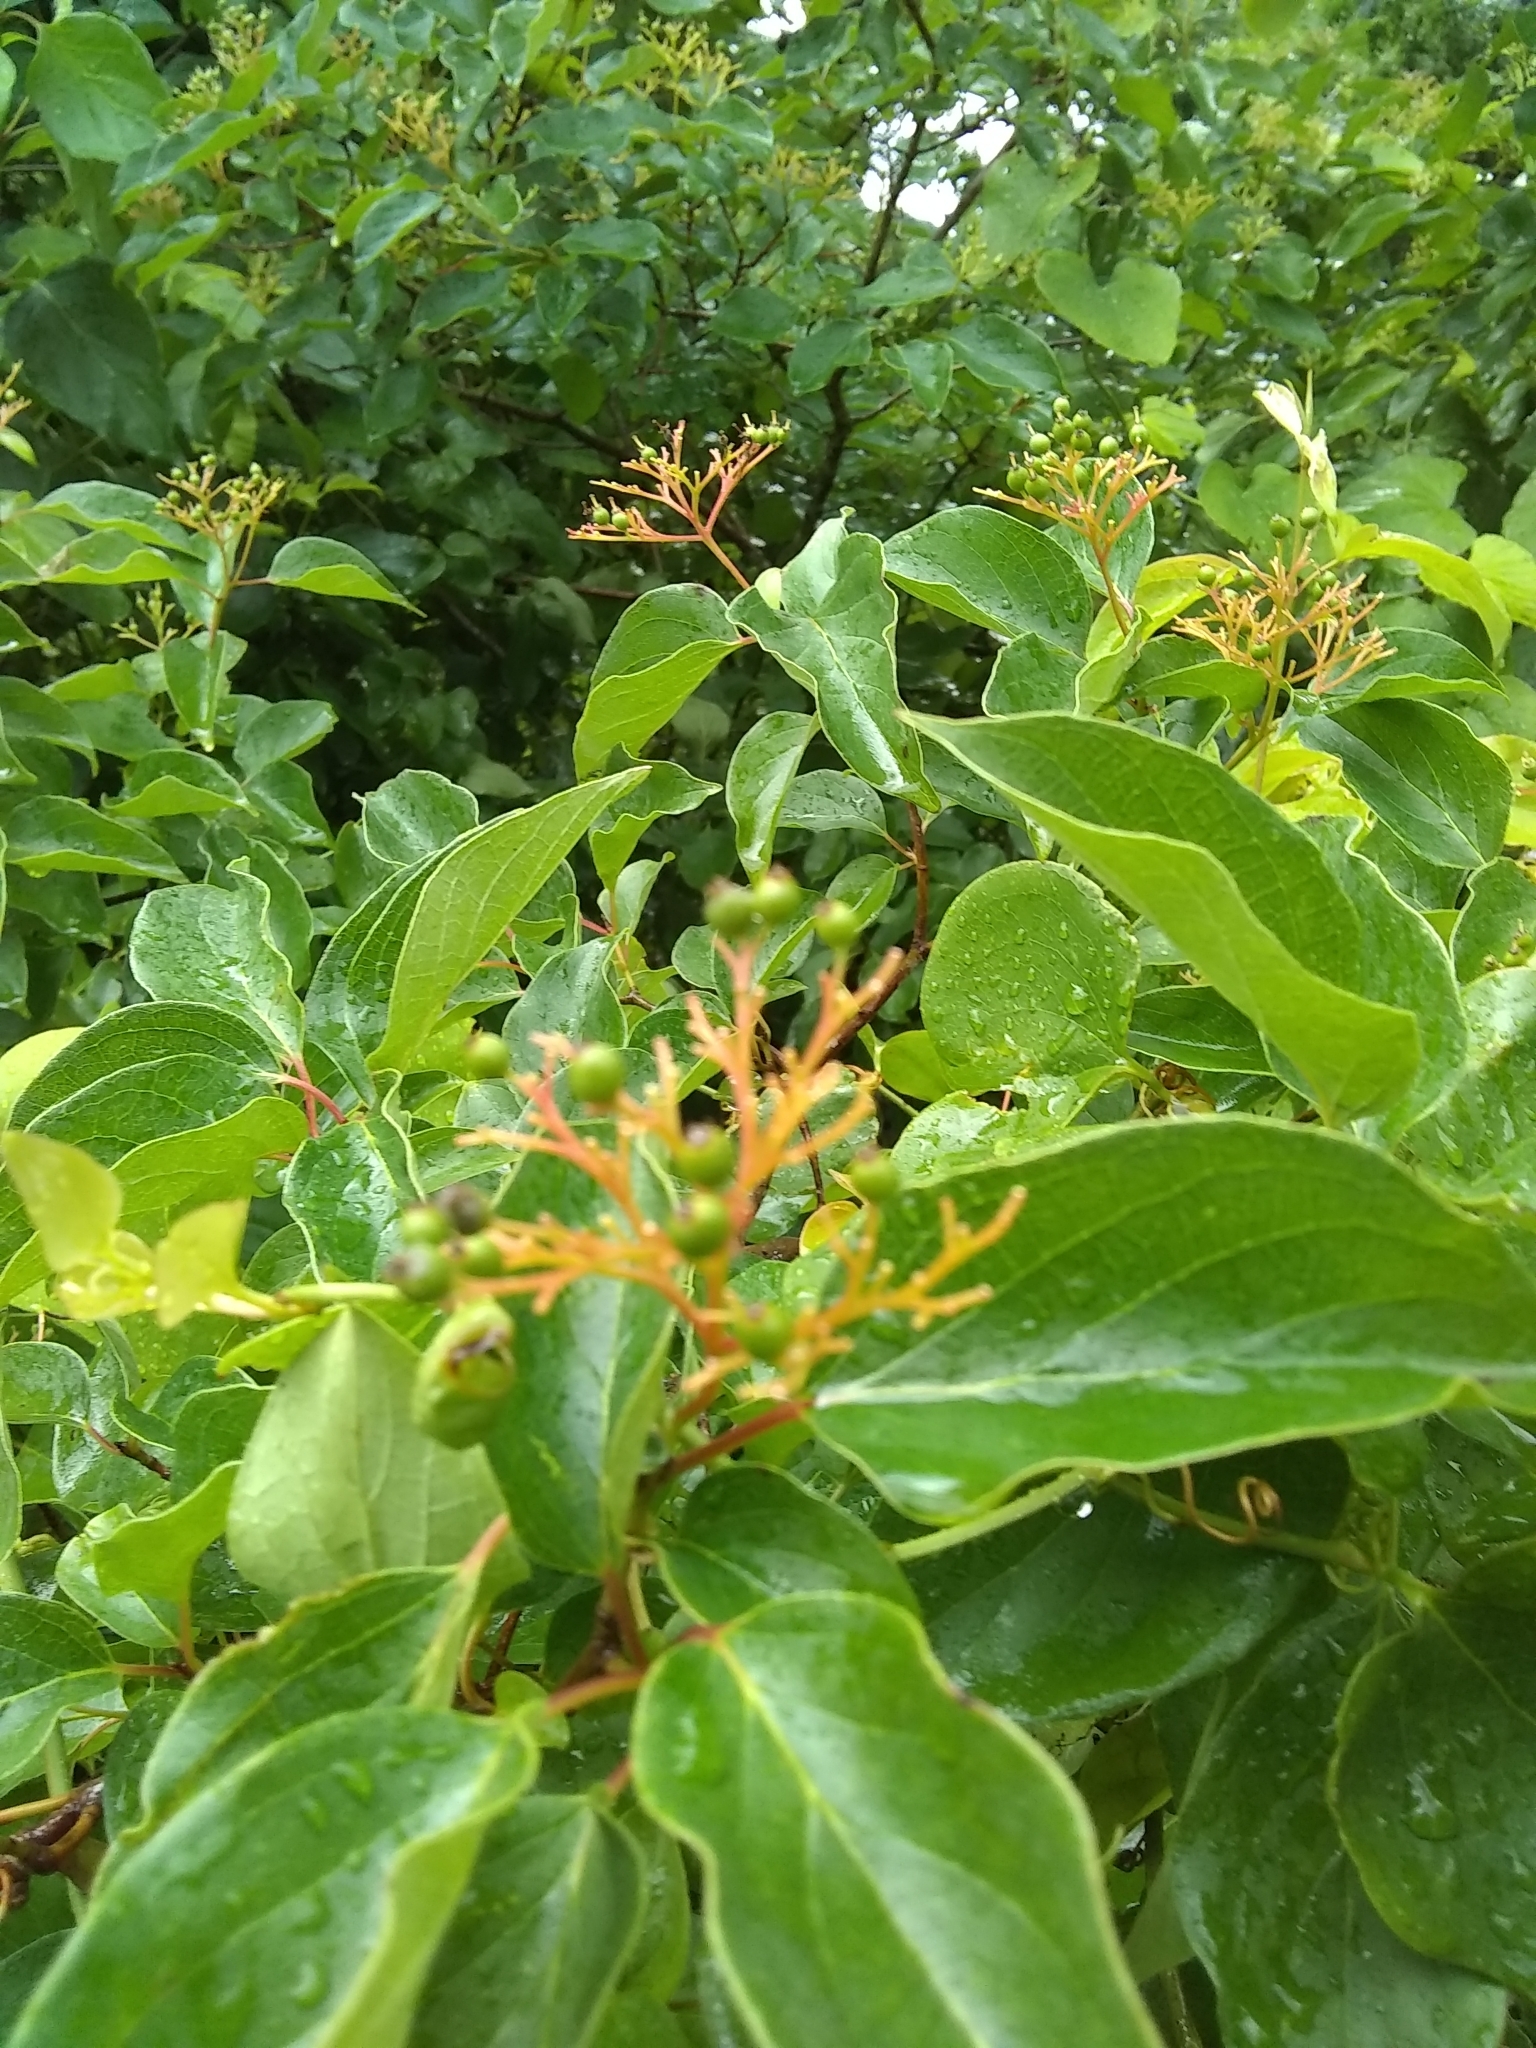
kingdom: Plantae
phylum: Tracheophyta
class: Magnoliopsida
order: Cornales
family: Cornaceae
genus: Cornus
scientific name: Cornus drummondii
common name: Rough-leaf dogwood
